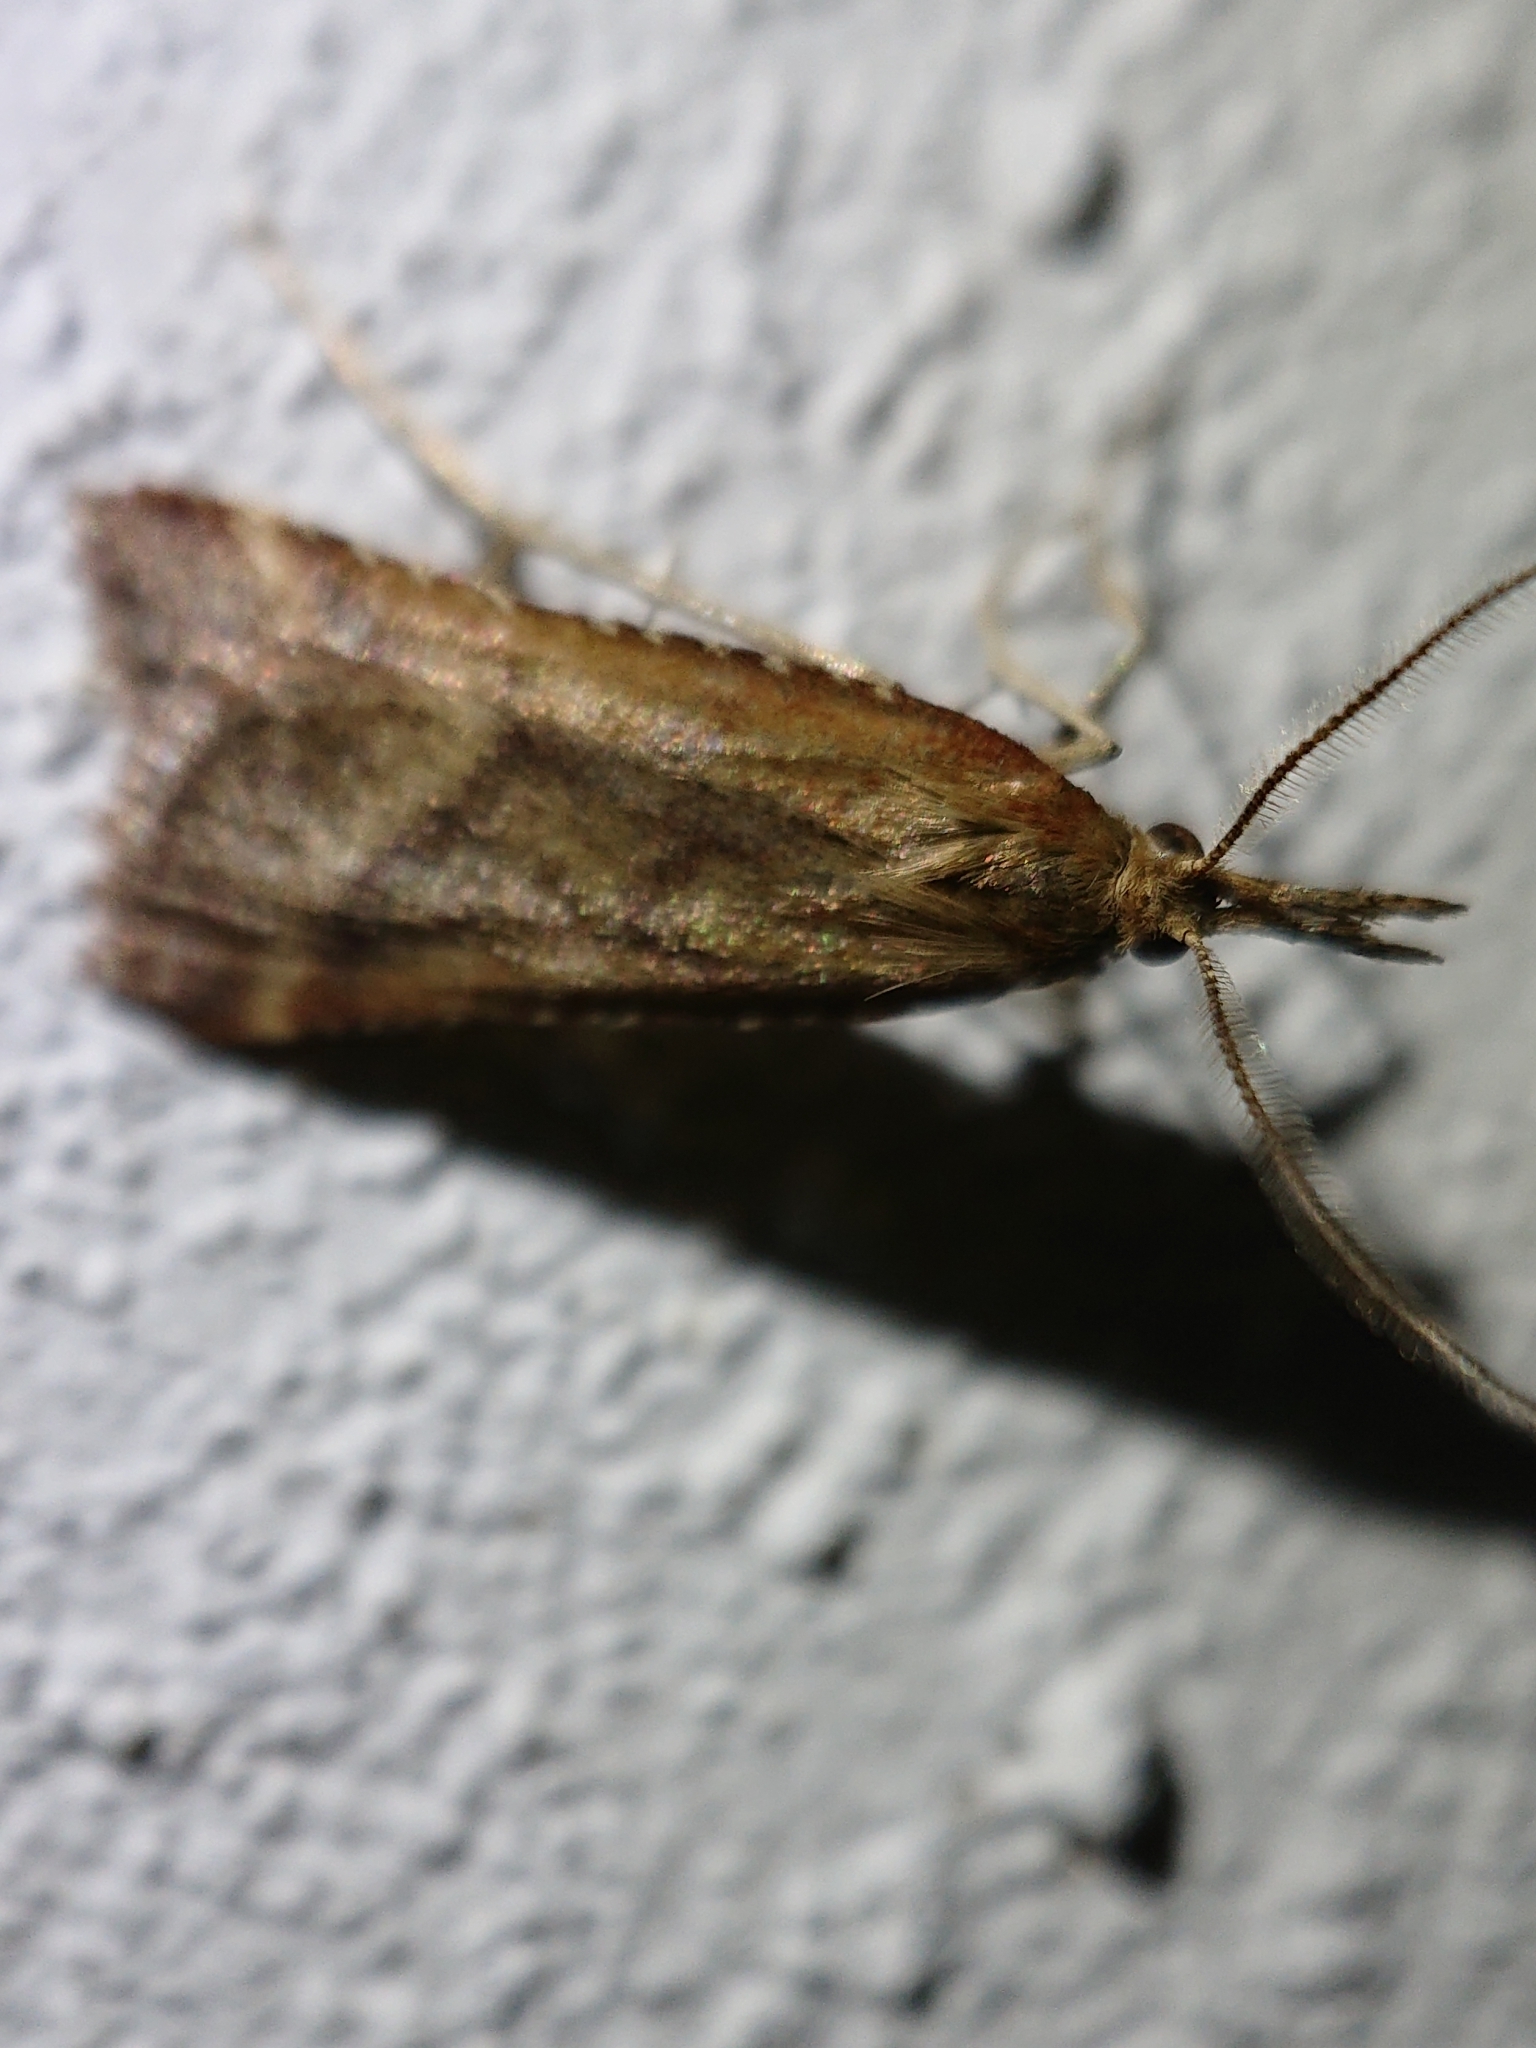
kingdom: Animalia
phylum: Arthropoda
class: Insecta
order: Lepidoptera
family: Pyralidae
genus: Synaphe
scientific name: Synaphe punctalis
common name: Long-legged tabby
